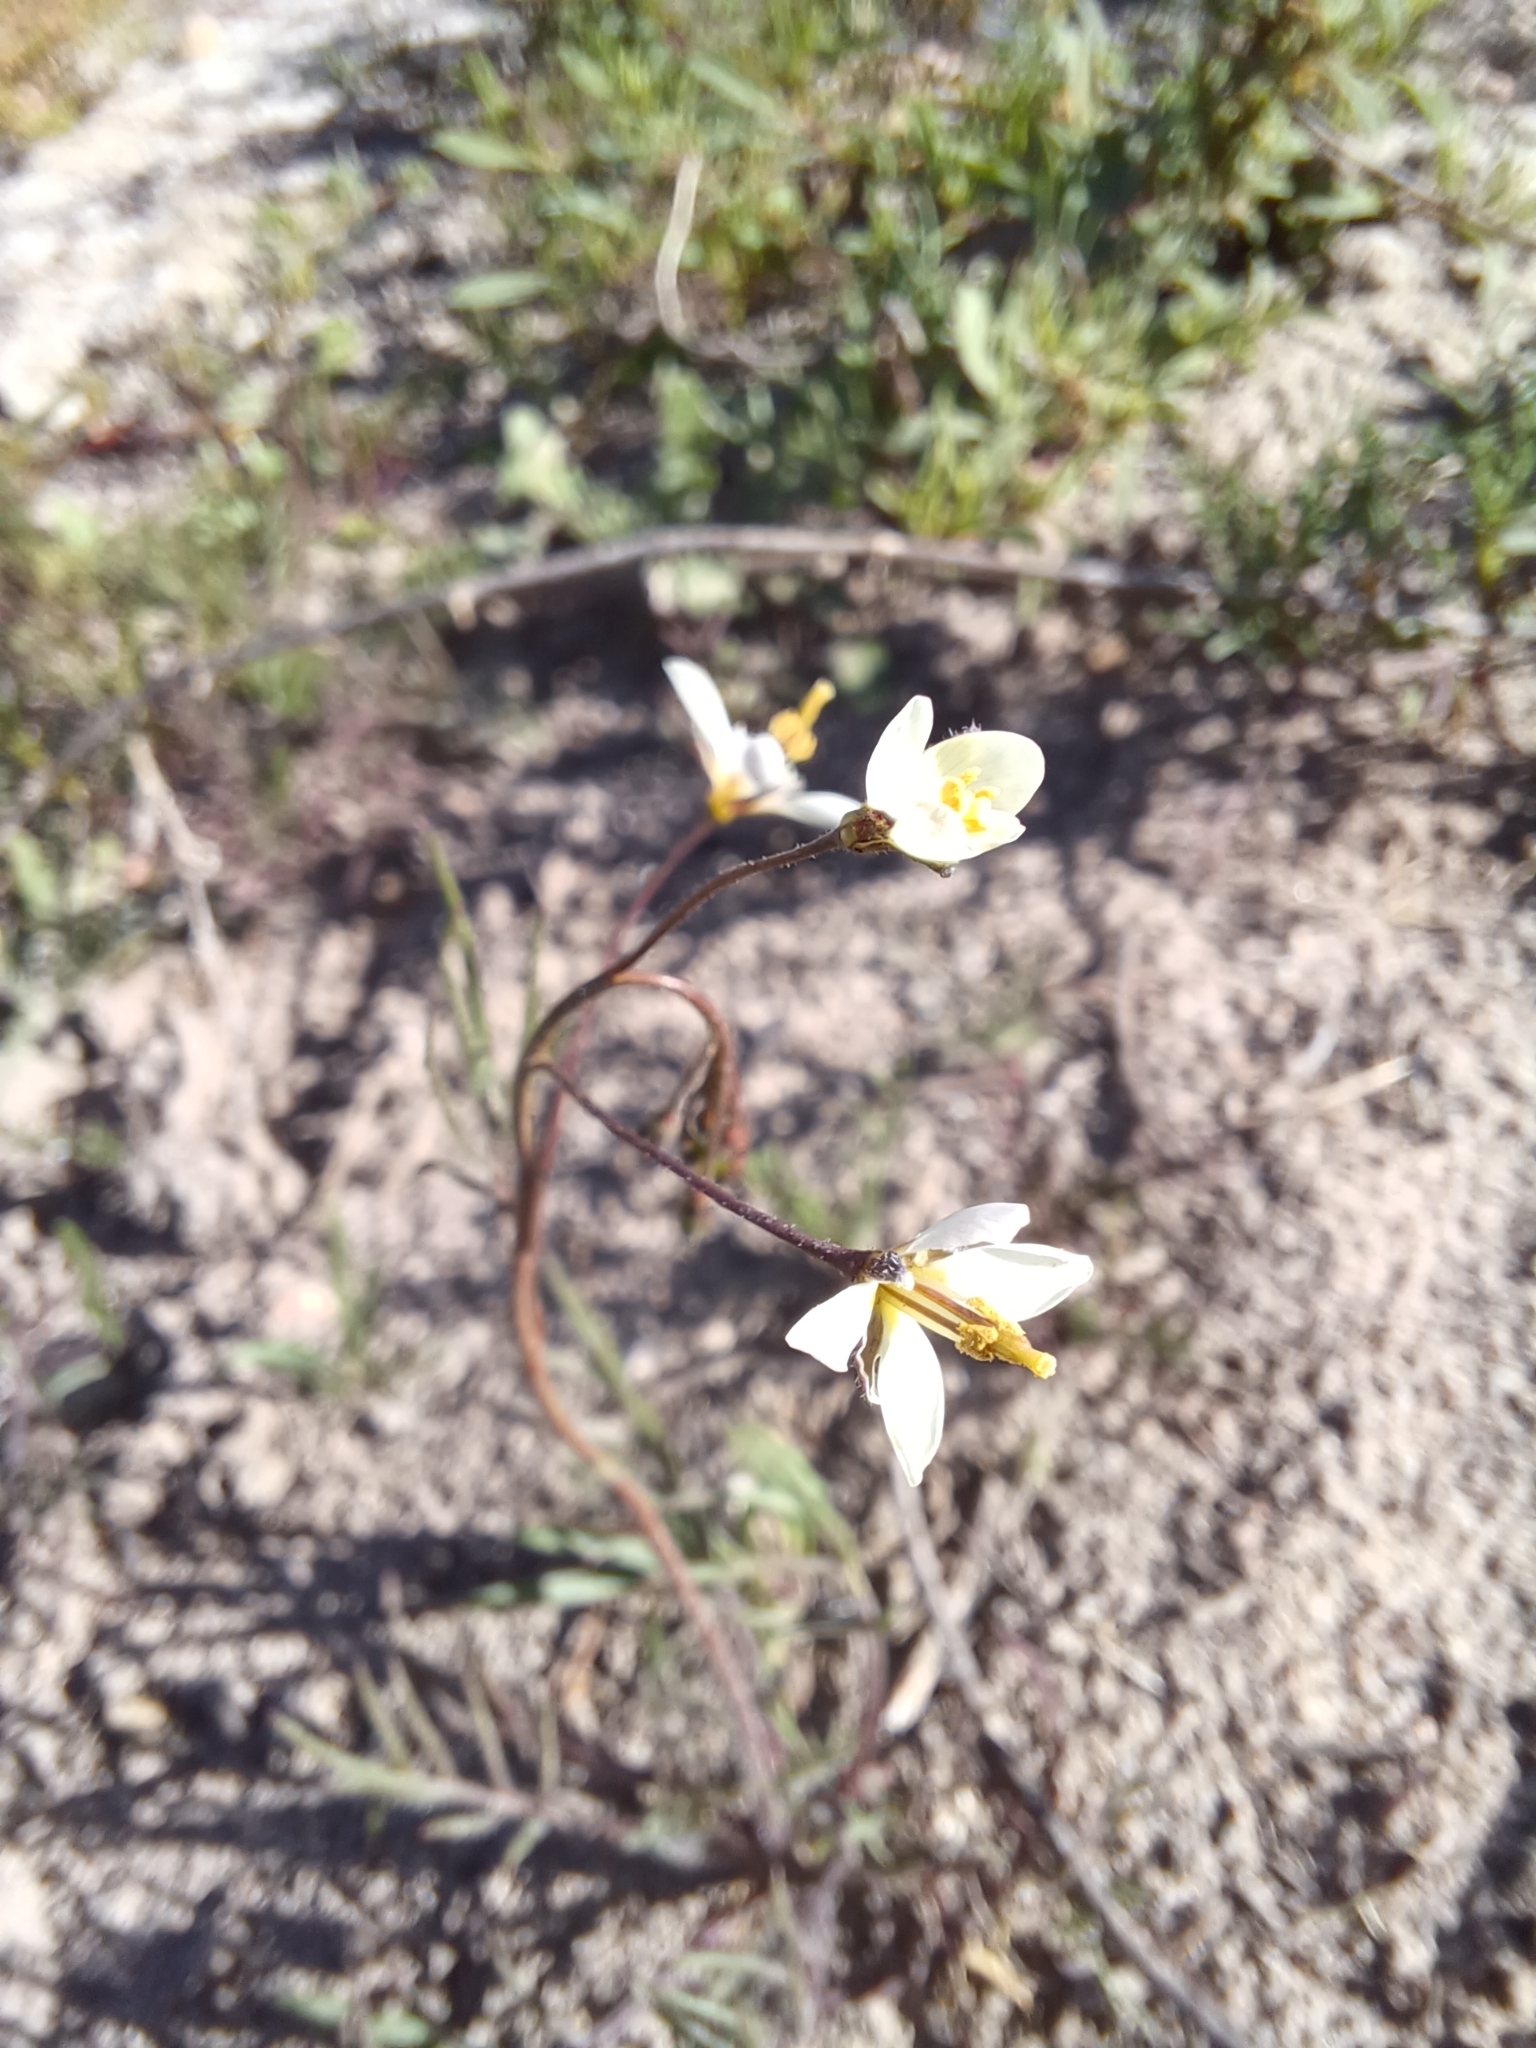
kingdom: Plantae
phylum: Tracheophyta
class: Magnoliopsida
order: Brassicales
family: Brassicaceae
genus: Heliophila
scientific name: Heliophila crithmifolia
